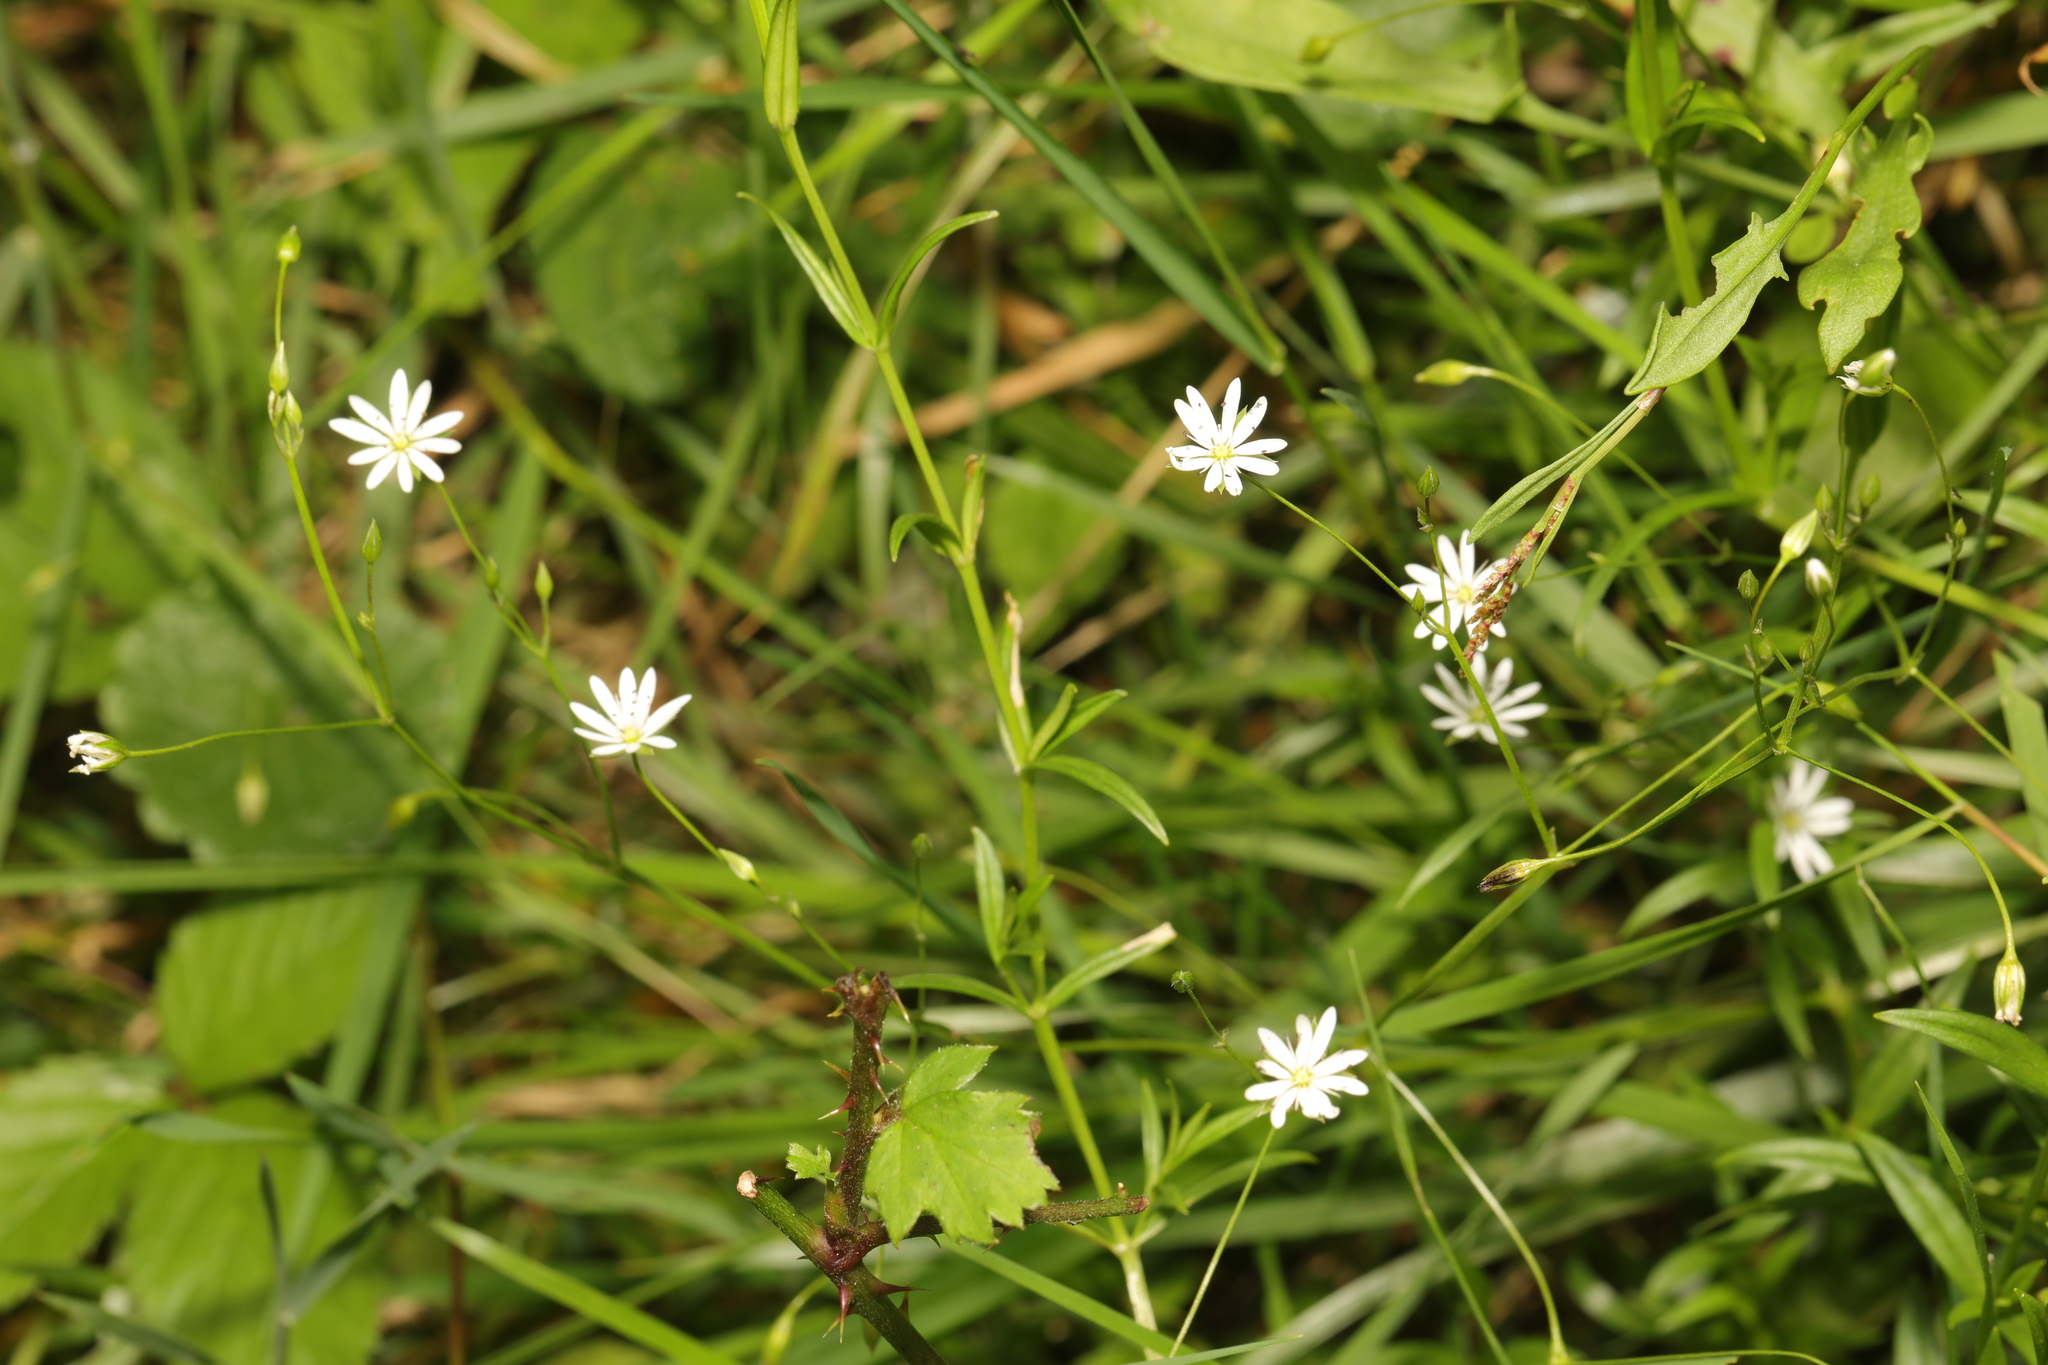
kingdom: Plantae
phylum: Tracheophyta
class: Magnoliopsida
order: Caryophyllales
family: Caryophyllaceae
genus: Stellaria
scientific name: Stellaria graminea
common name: Grass-like starwort
